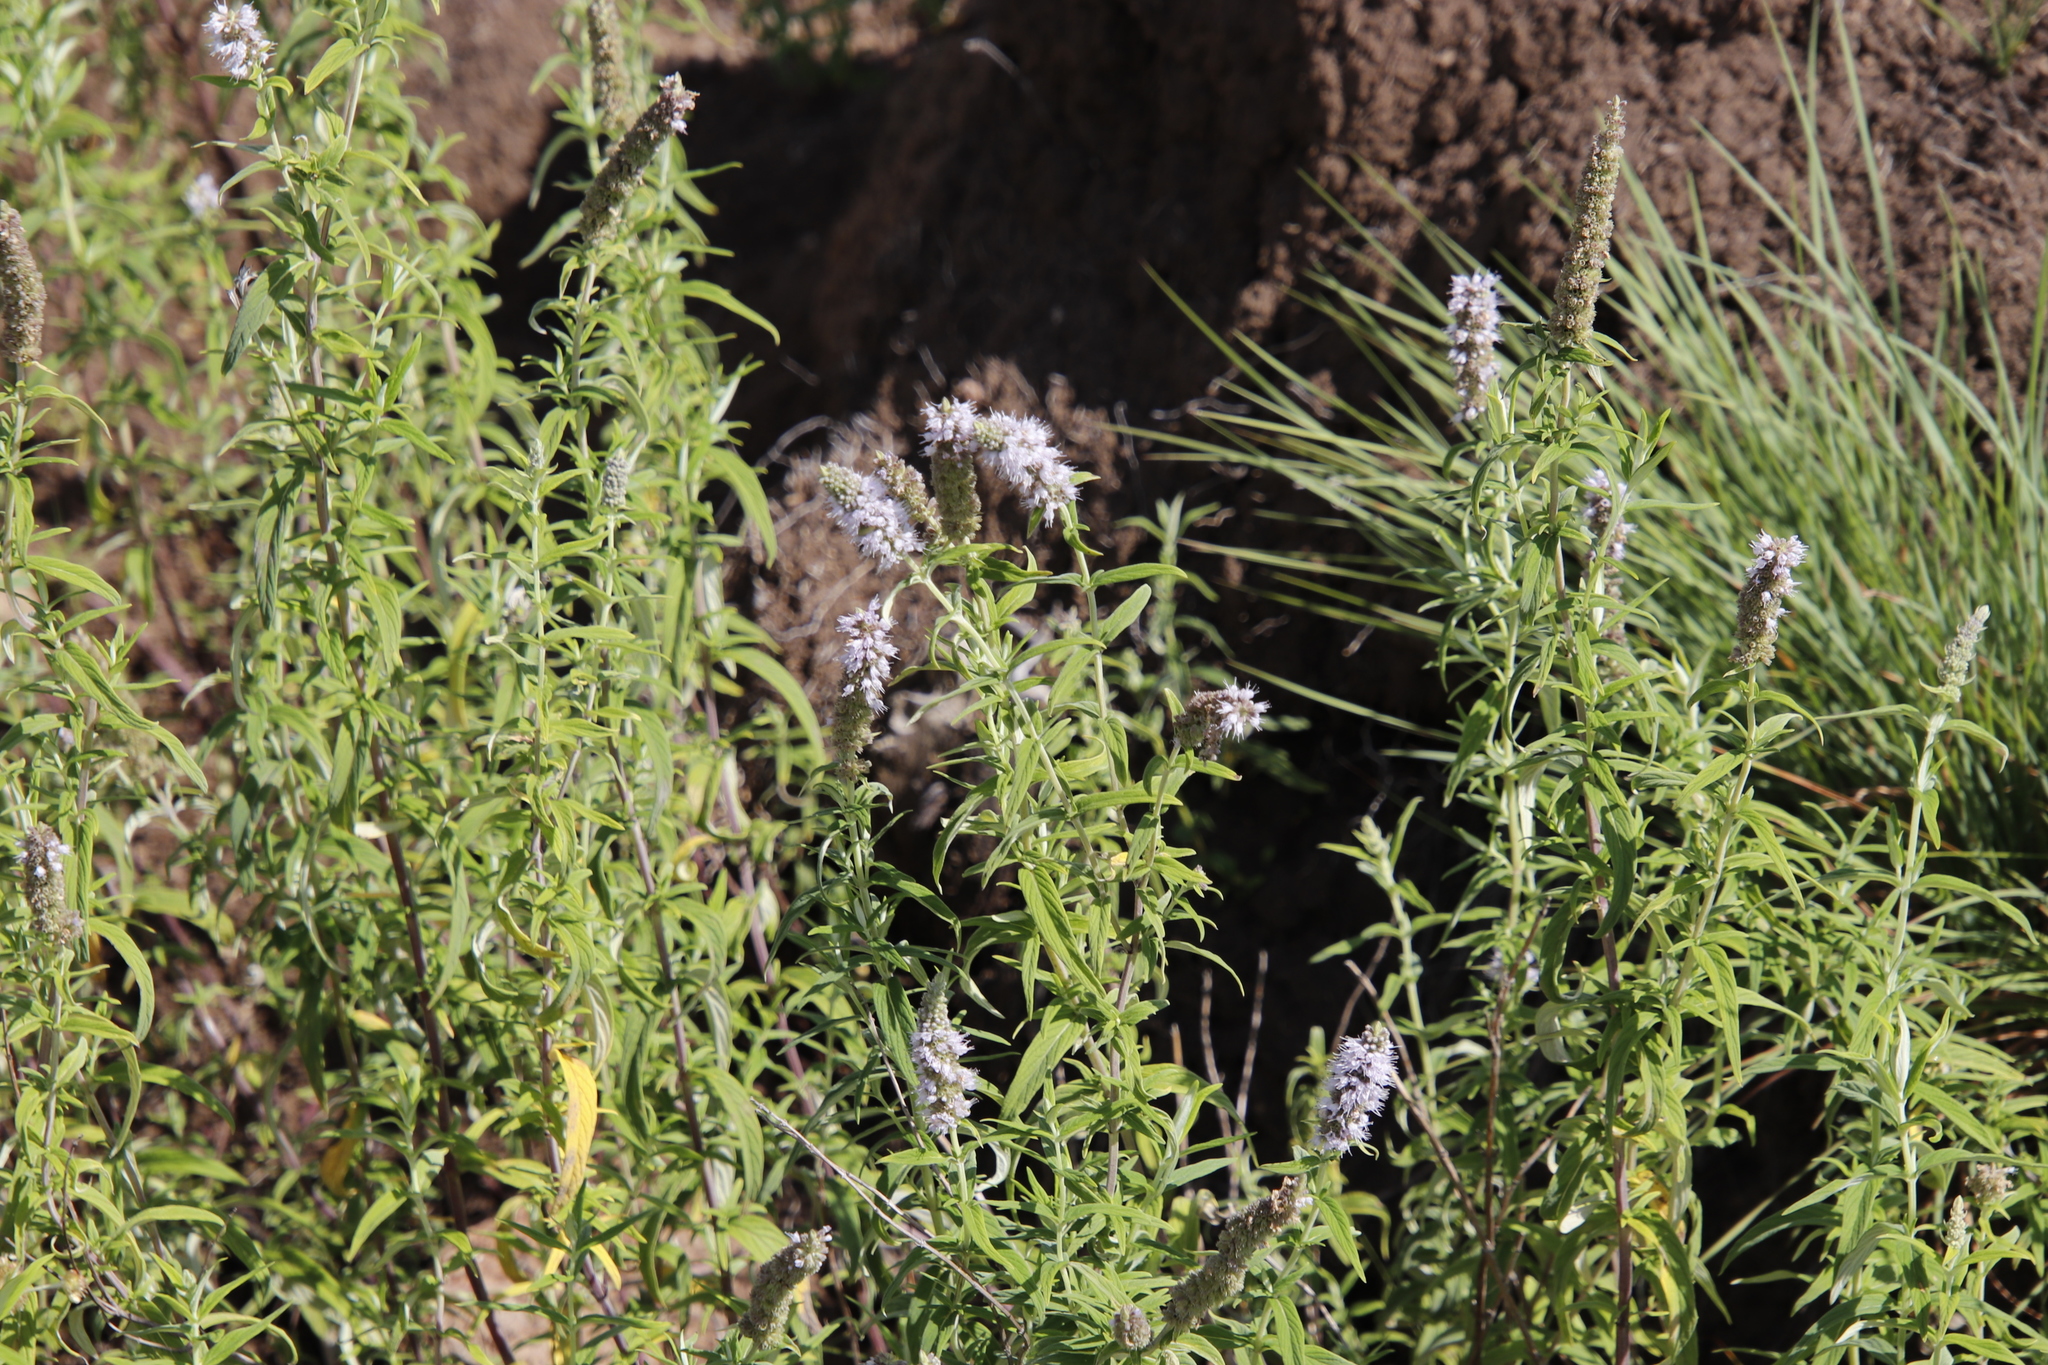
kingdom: Plantae
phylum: Tracheophyta
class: Magnoliopsida
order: Lamiales
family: Lamiaceae
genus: Mentha
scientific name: Mentha longifolia
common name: Horse mint
